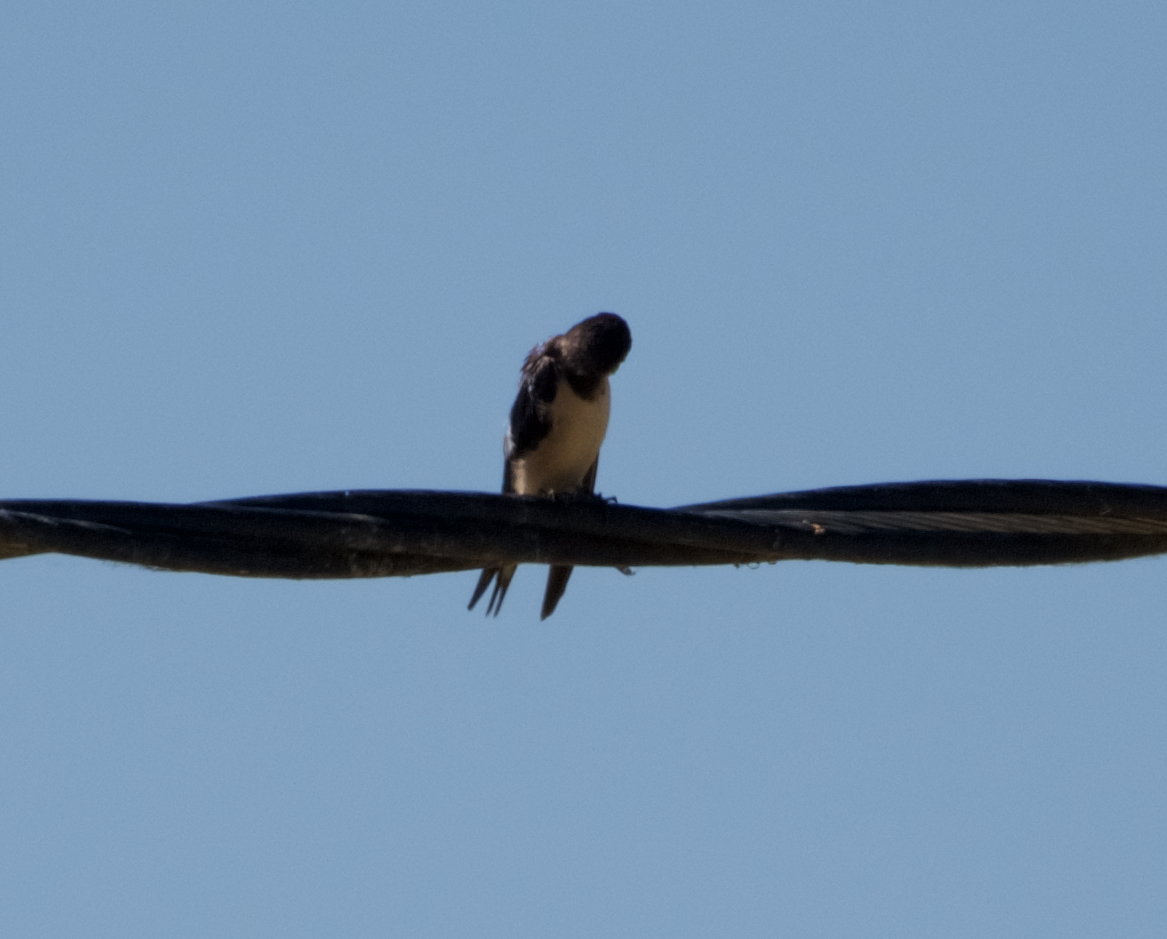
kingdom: Animalia
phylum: Chordata
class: Aves
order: Passeriformes
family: Hirundinidae
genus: Hirundo
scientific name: Hirundo rustica
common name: Barn swallow
